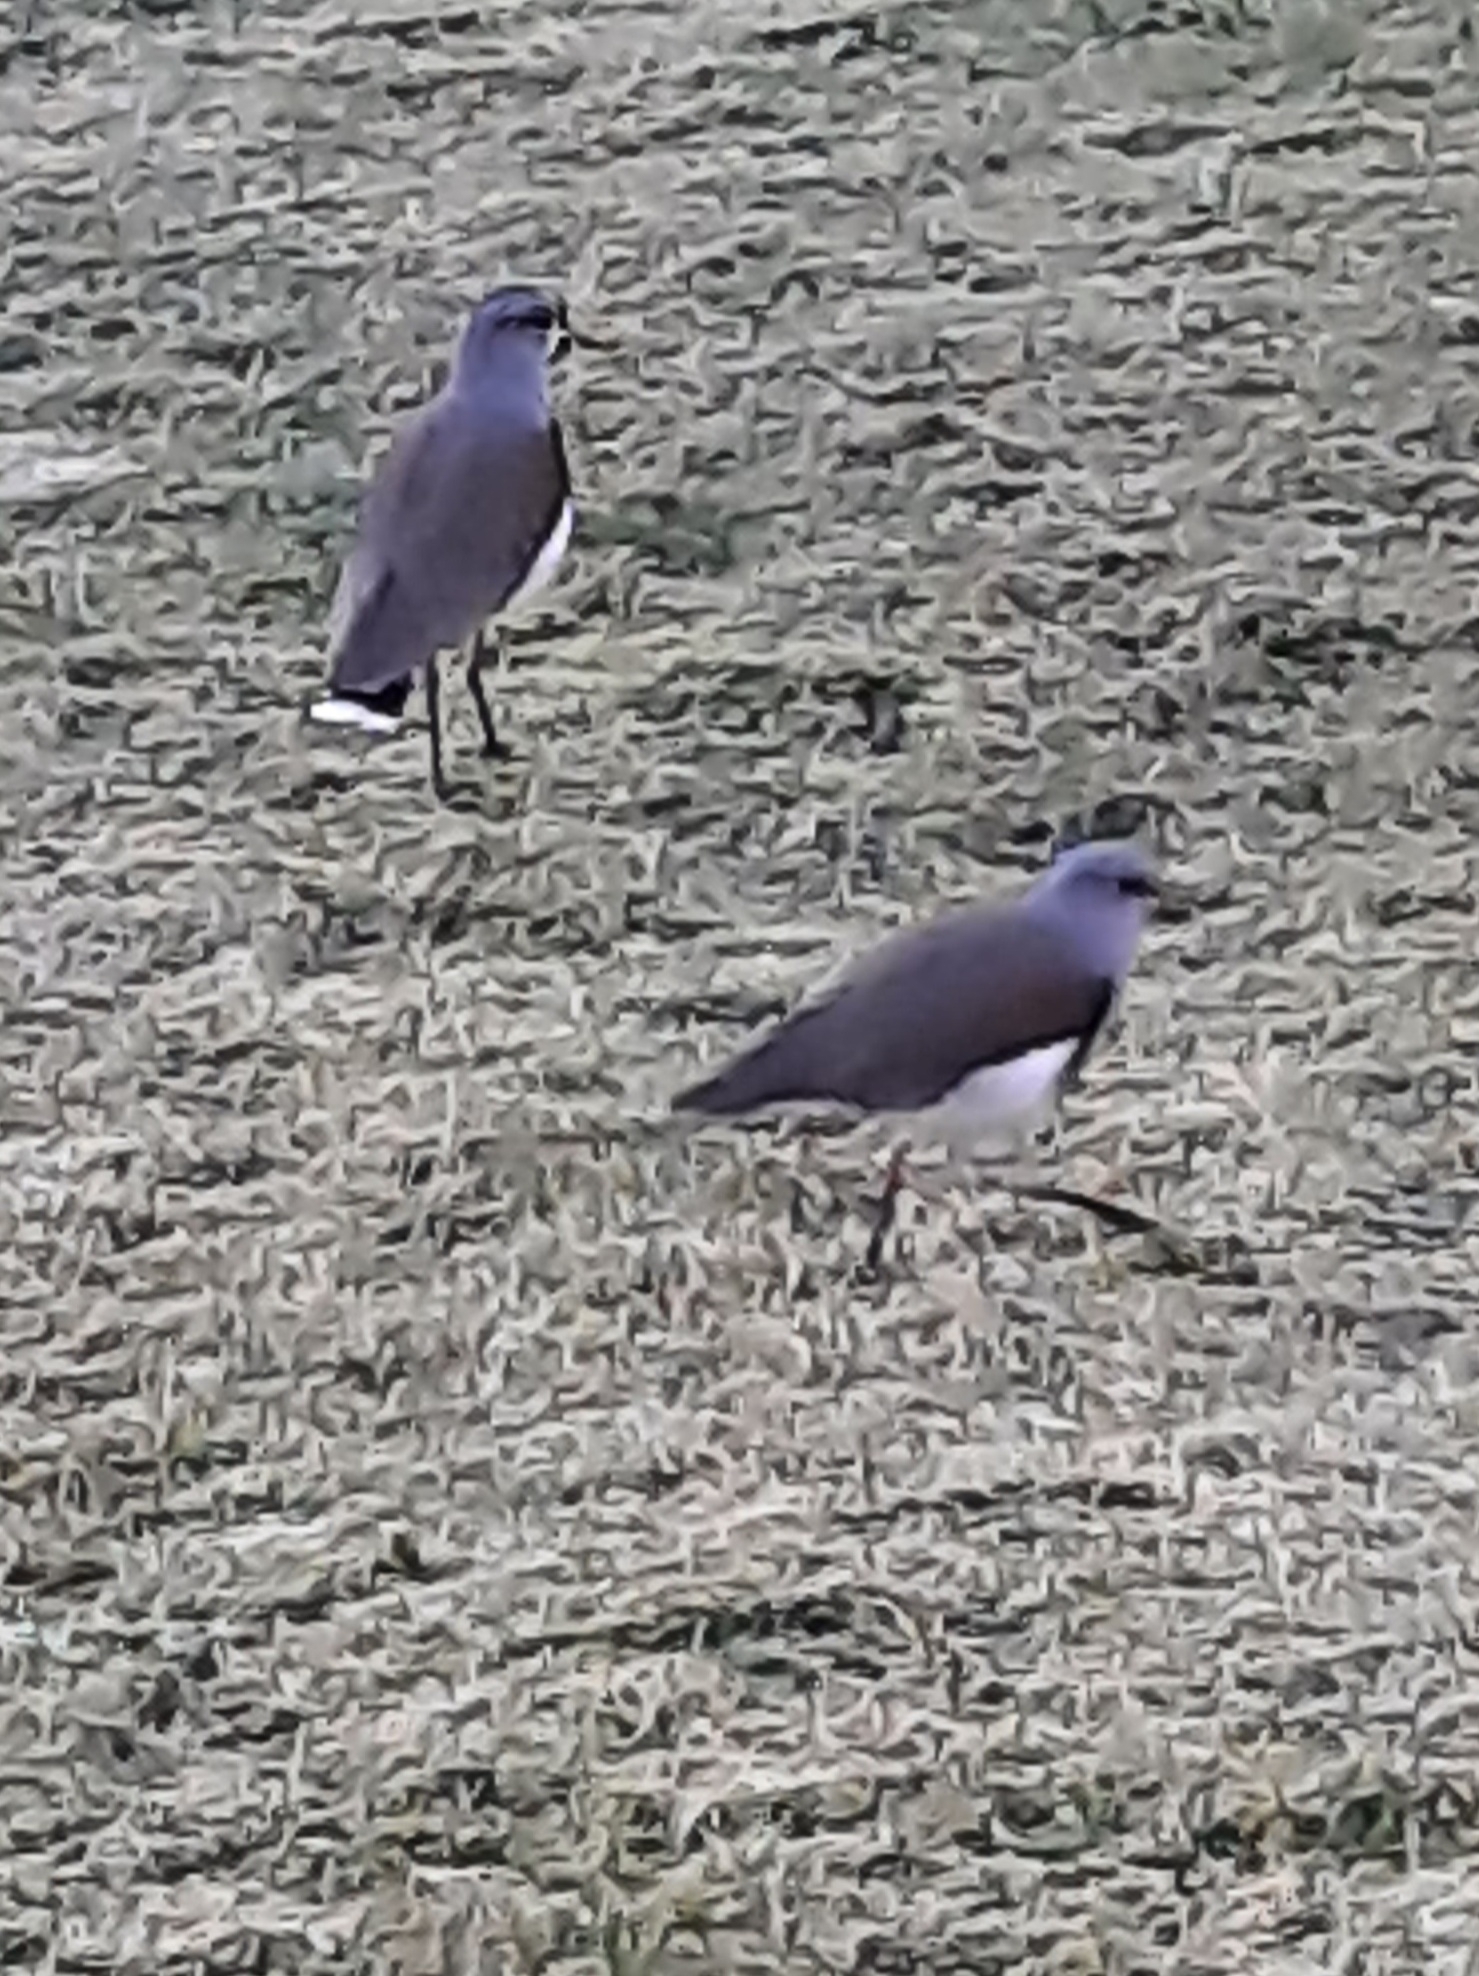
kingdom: Animalia
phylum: Chordata
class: Aves
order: Charadriiformes
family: Charadriidae
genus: Vanellus
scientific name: Vanellus chilensis
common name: Southern lapwing
